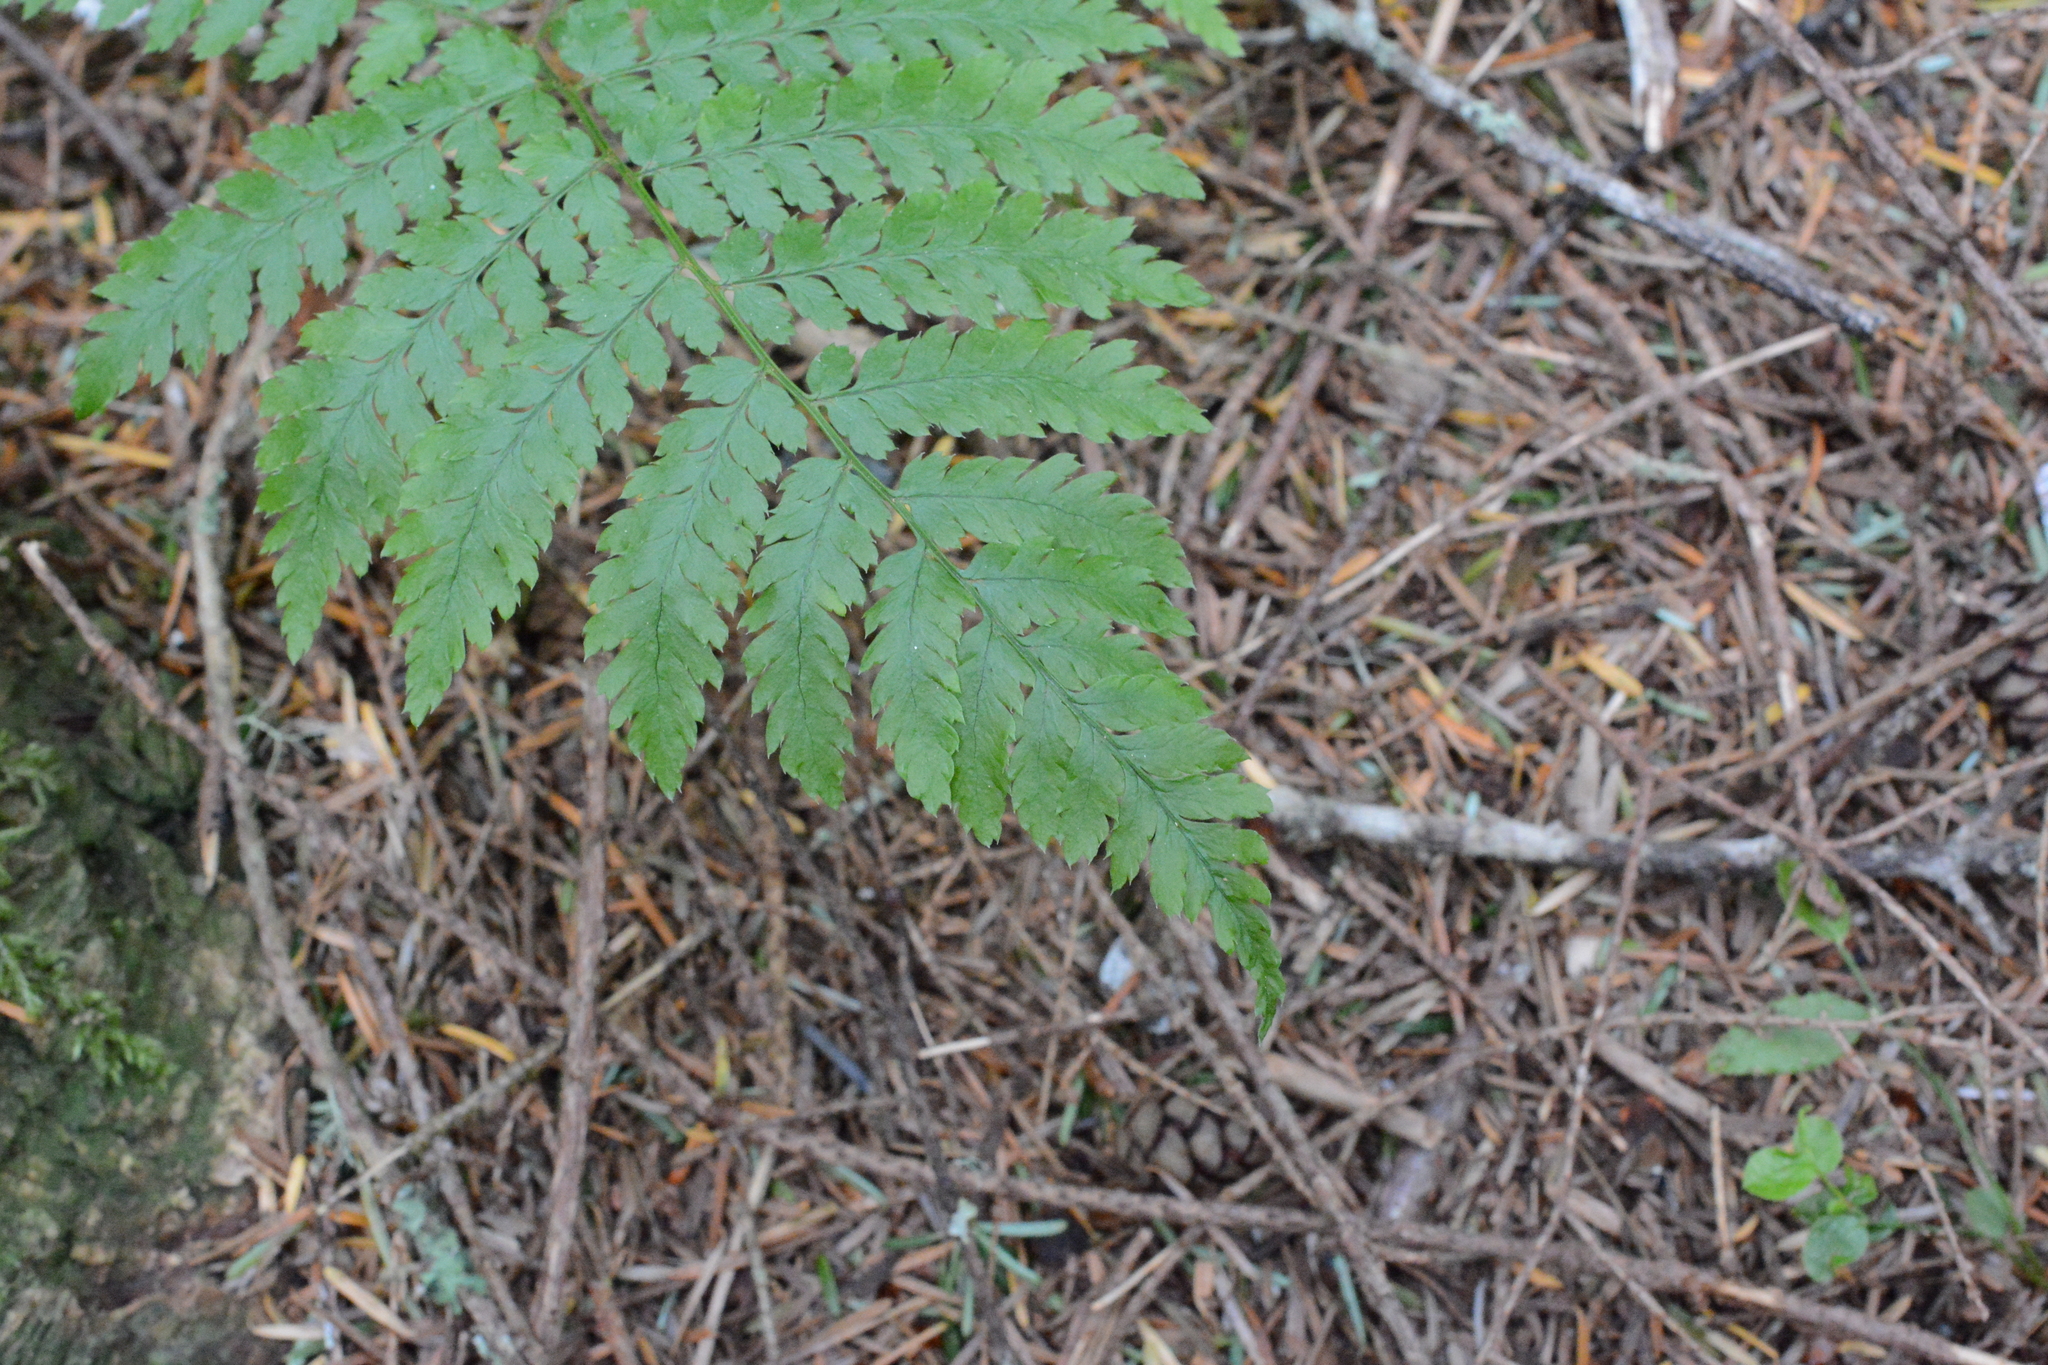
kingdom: Plantae
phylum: Tracheophyta
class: Polypodiopsida
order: Polypodiales
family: Dryopteridaceae
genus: Dryopteris
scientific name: Dryopteris expansa
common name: Northern buckler fern
